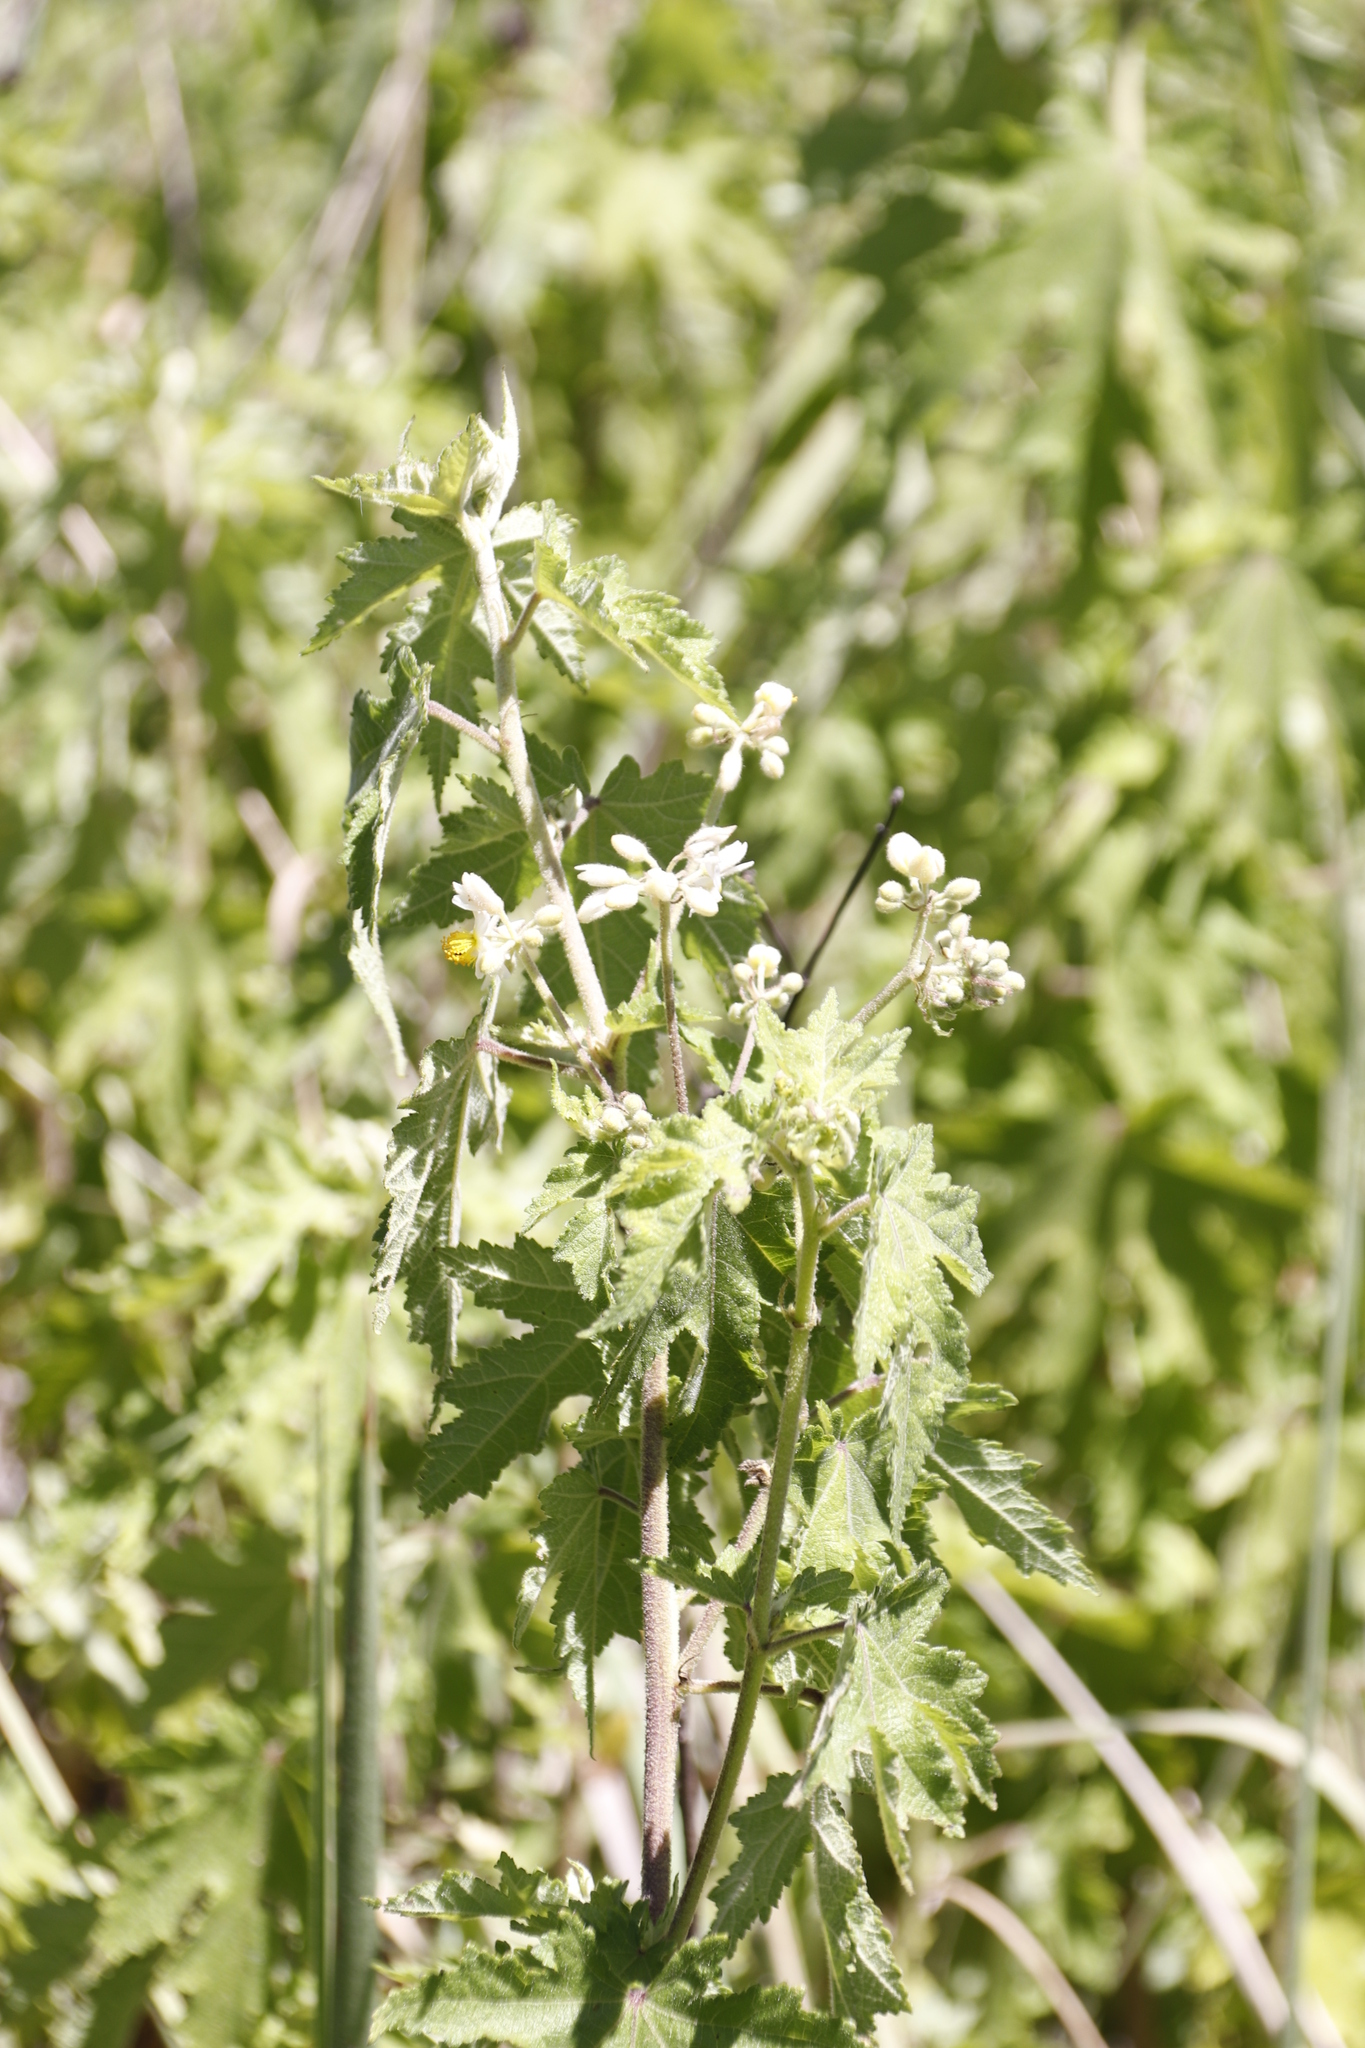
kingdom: Plantae
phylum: Tracheophyta
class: Magnoliopsida
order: Malvales
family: Malvaceae
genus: Sparrmannia
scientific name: Sparrmannia africana
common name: African-hemp
